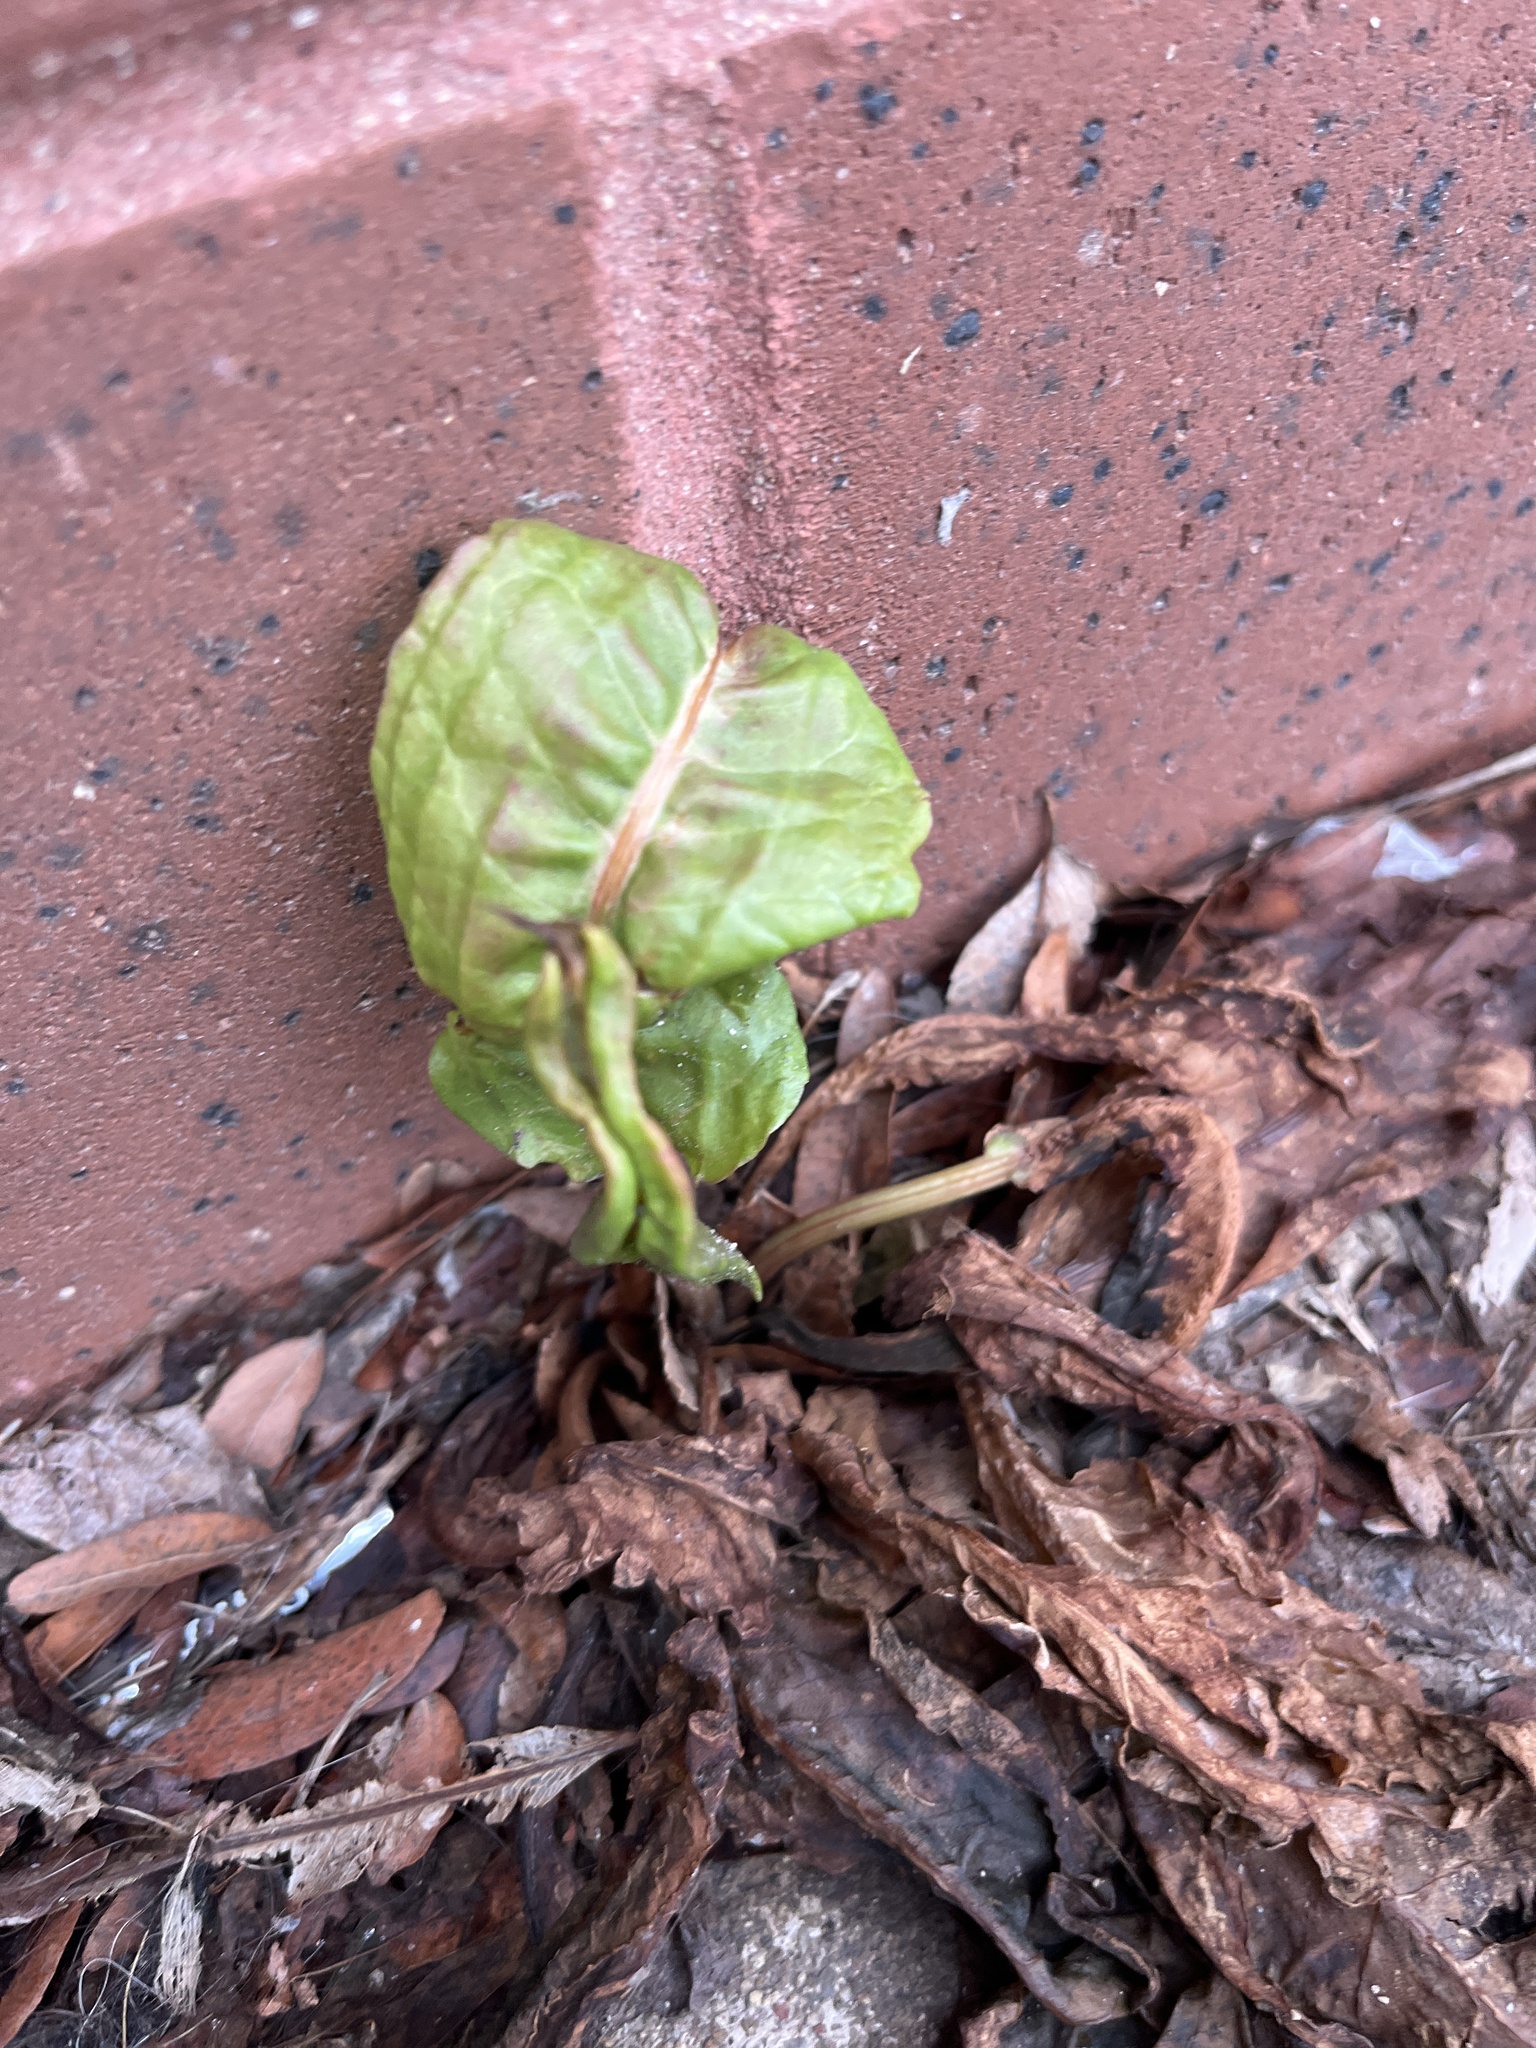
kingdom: Plantae
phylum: Tracheophyta
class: Magnoliopsida
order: Caryophyllales
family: Polygonaceae
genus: Rumex
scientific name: Rumex crispus
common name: Curled dock
